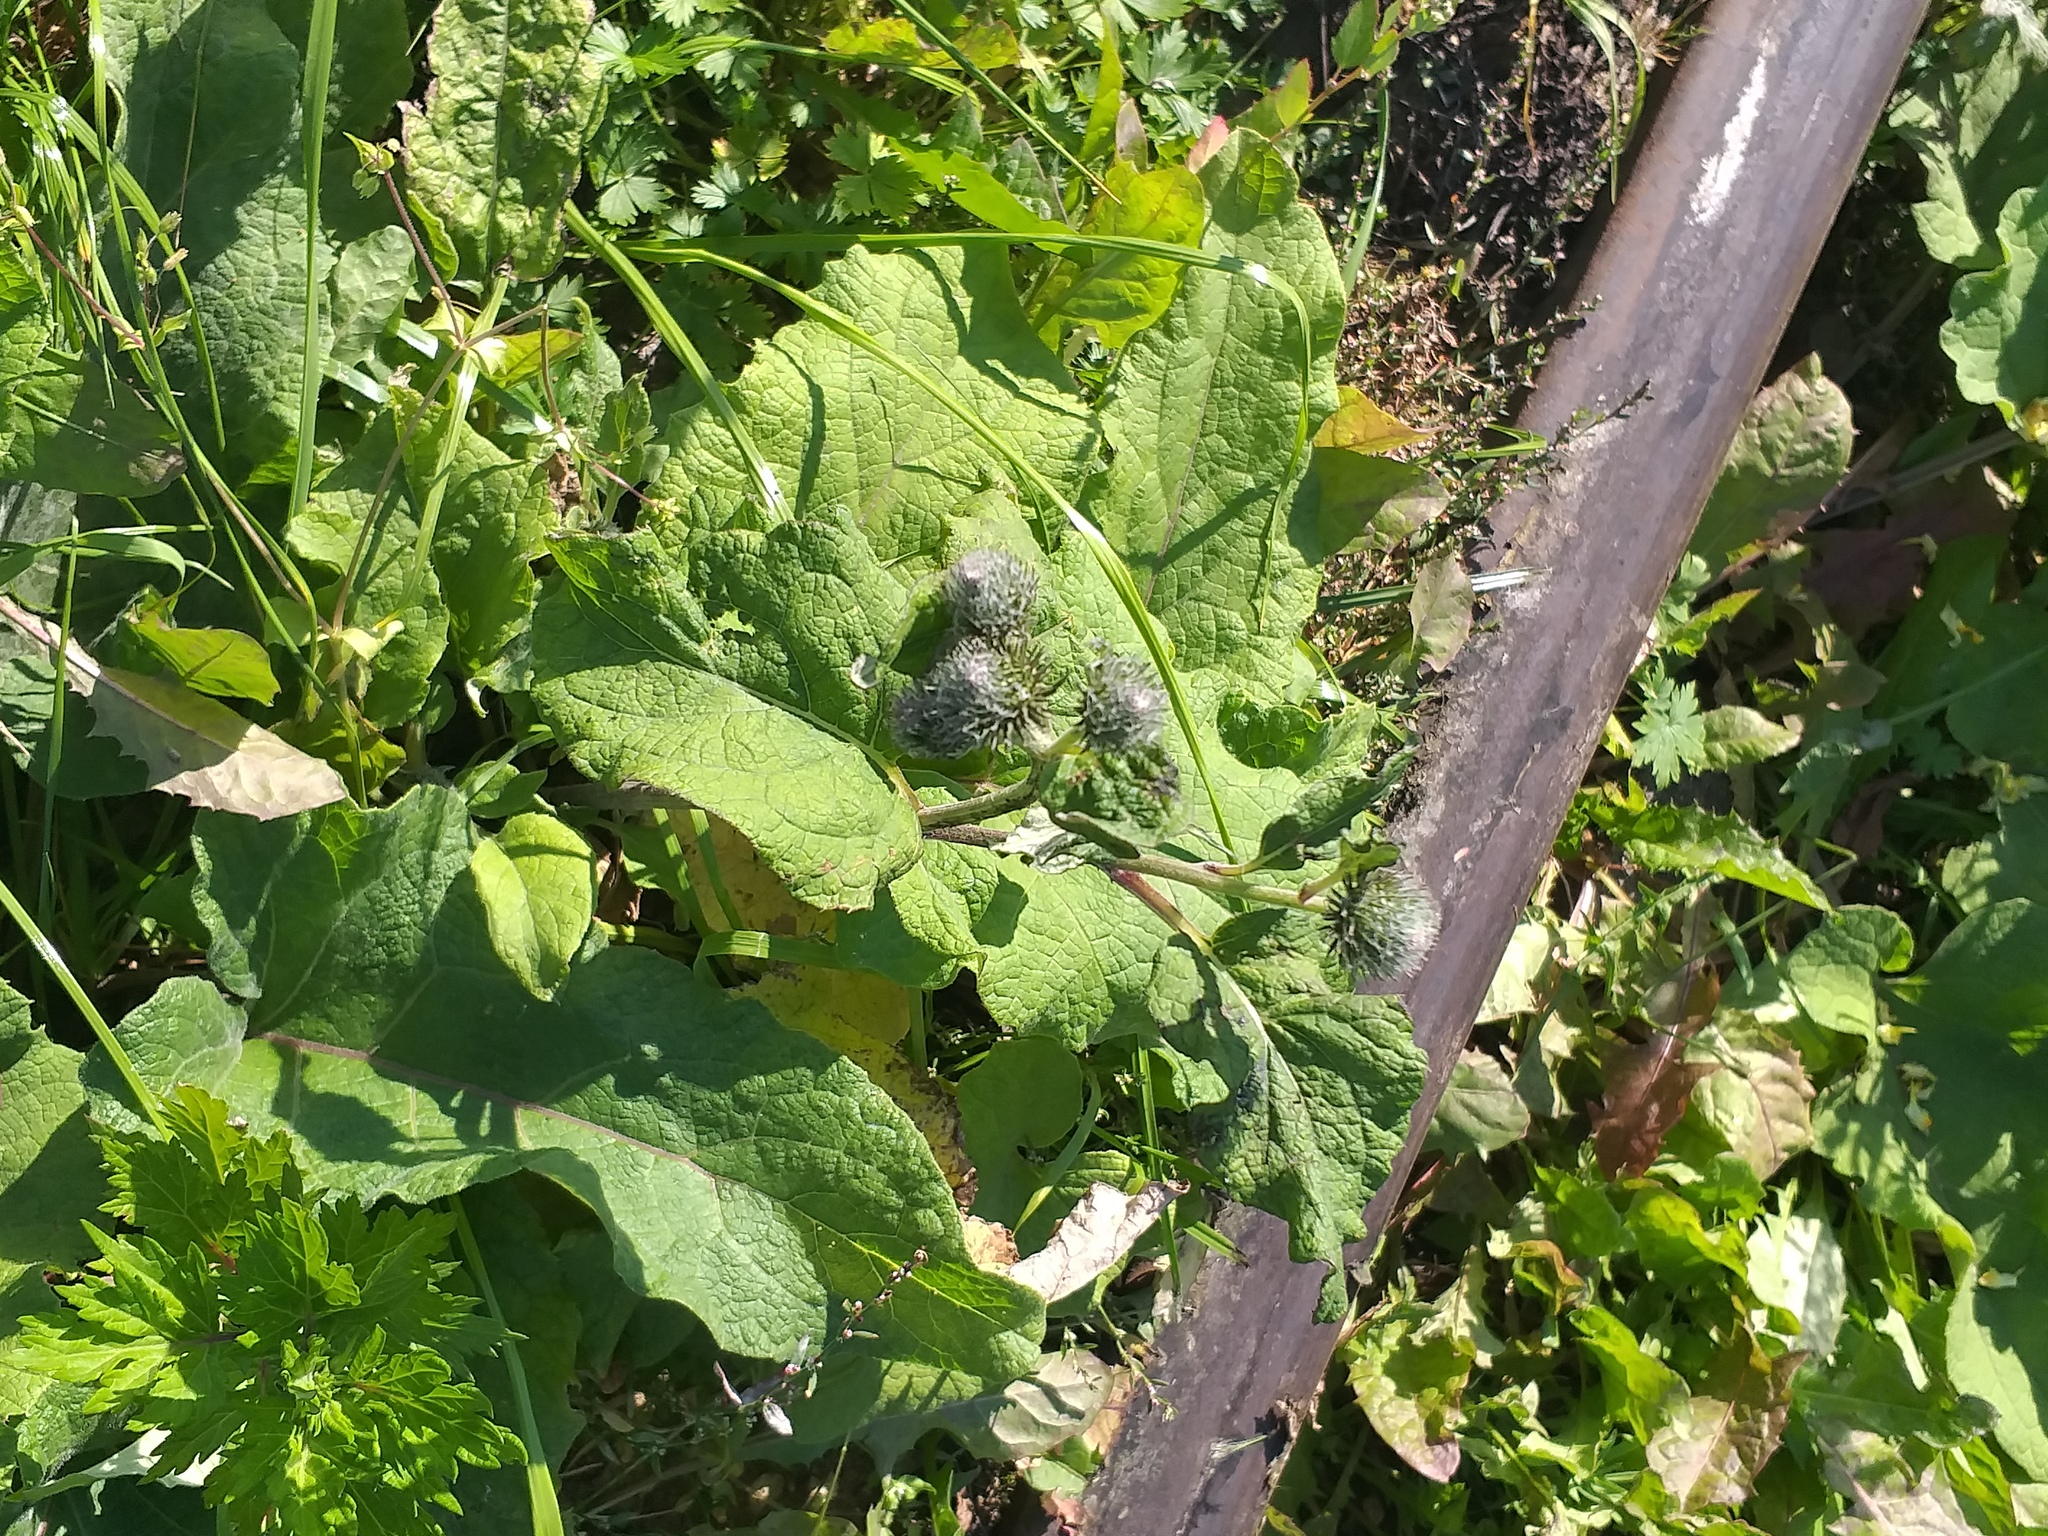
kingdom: Plantae
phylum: Tracheophyta
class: Magnoliopsida
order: Asterales
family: Asteraceae
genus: Arctium
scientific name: Arctium tomentosum
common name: Woolly burdock
